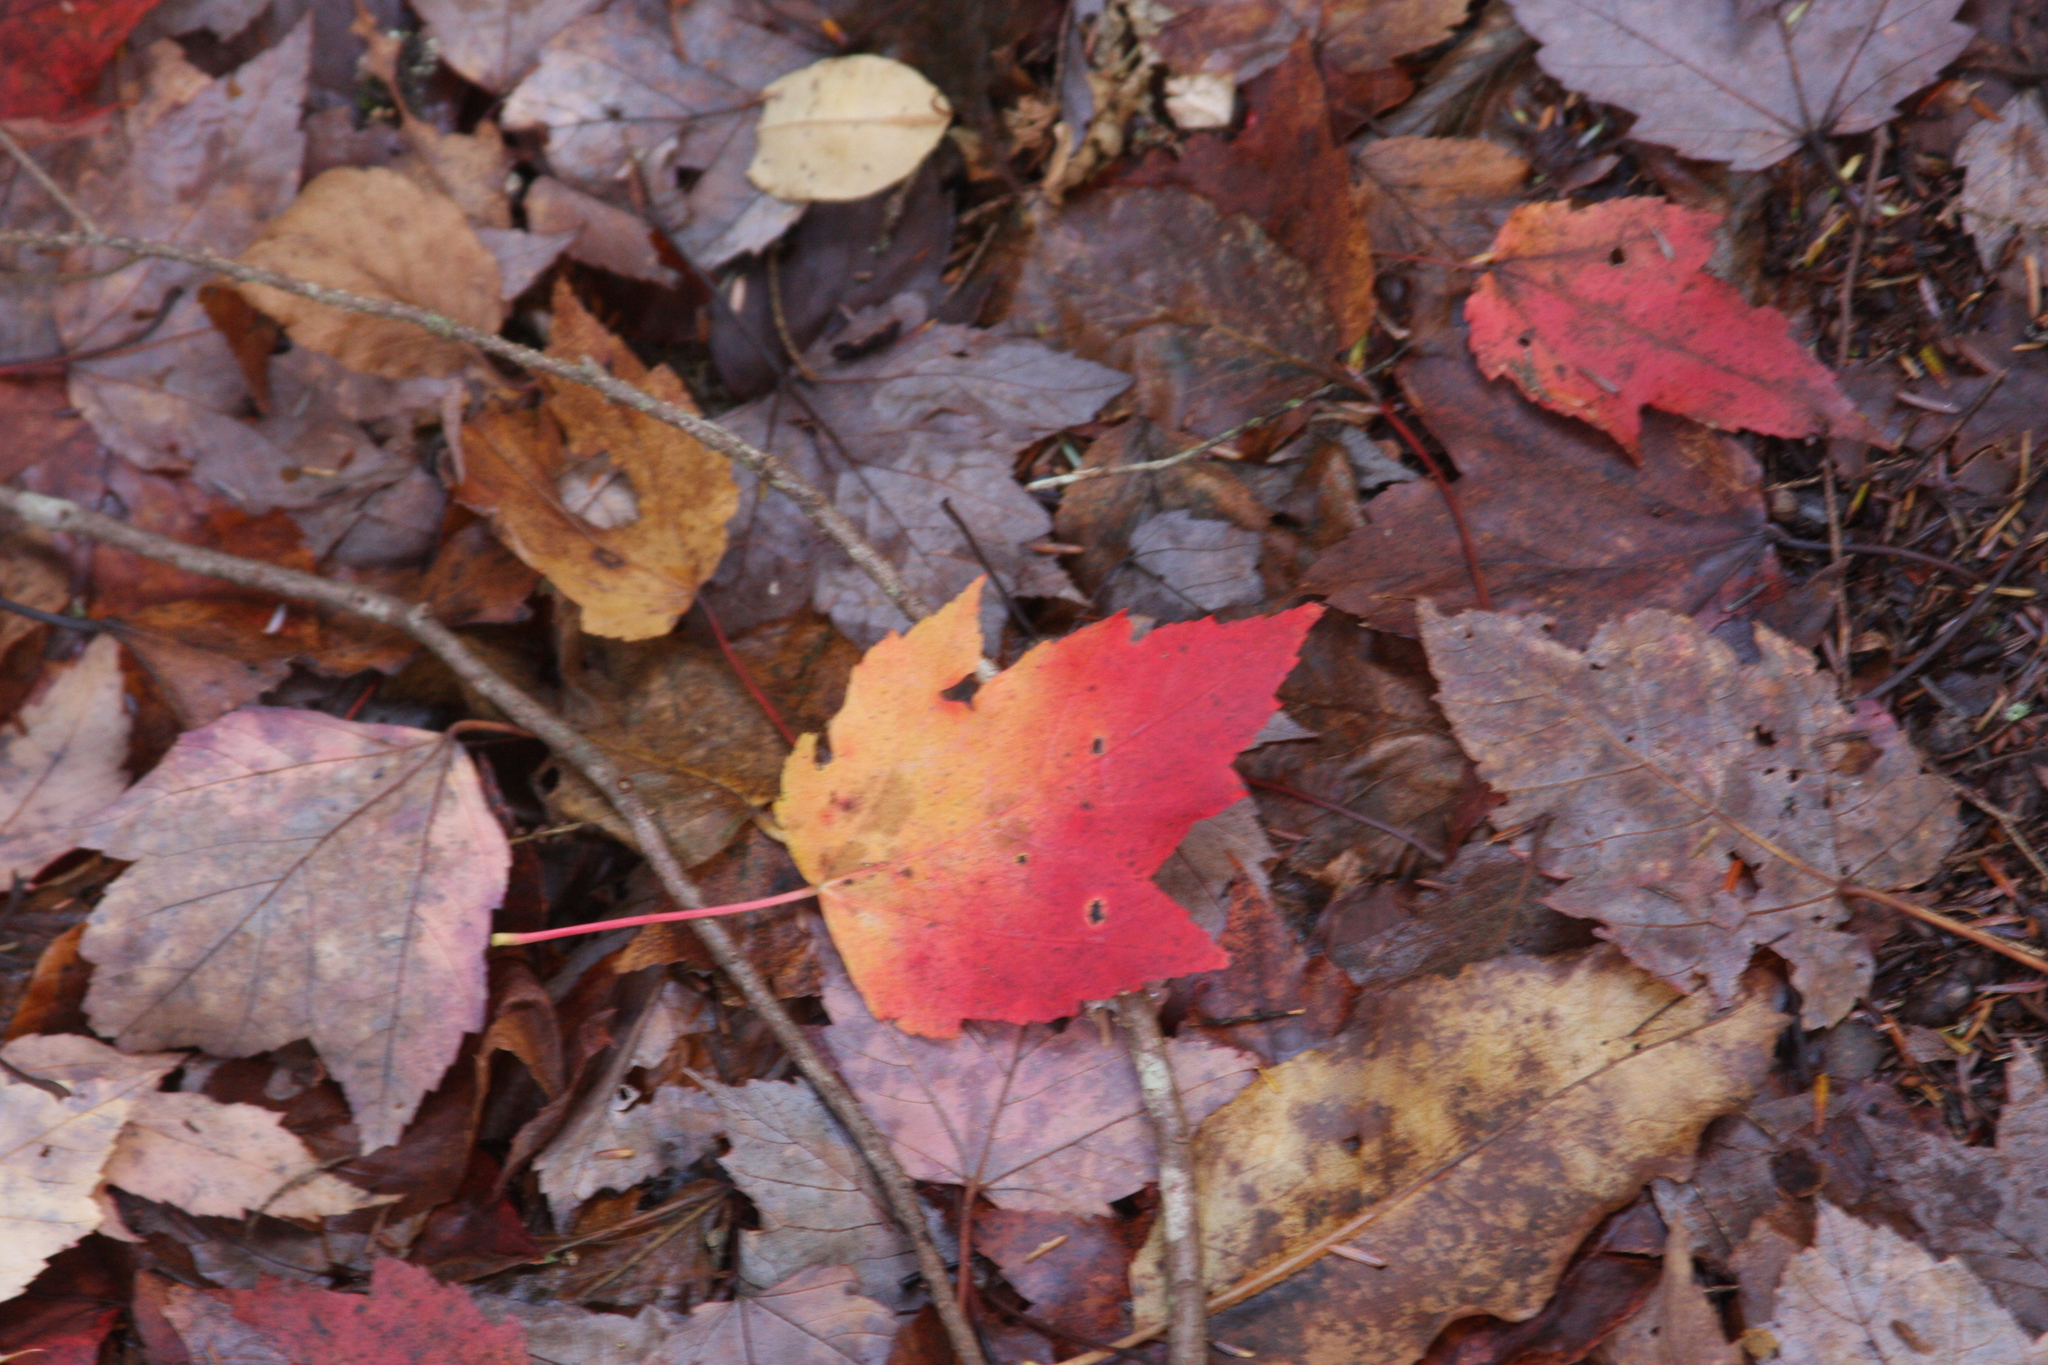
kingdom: Plantae
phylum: Tracheophyta
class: Magnoliopsida
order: Sapindales
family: Sapindaceae
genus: Acer
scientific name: Acer rubrum
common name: Red maple
